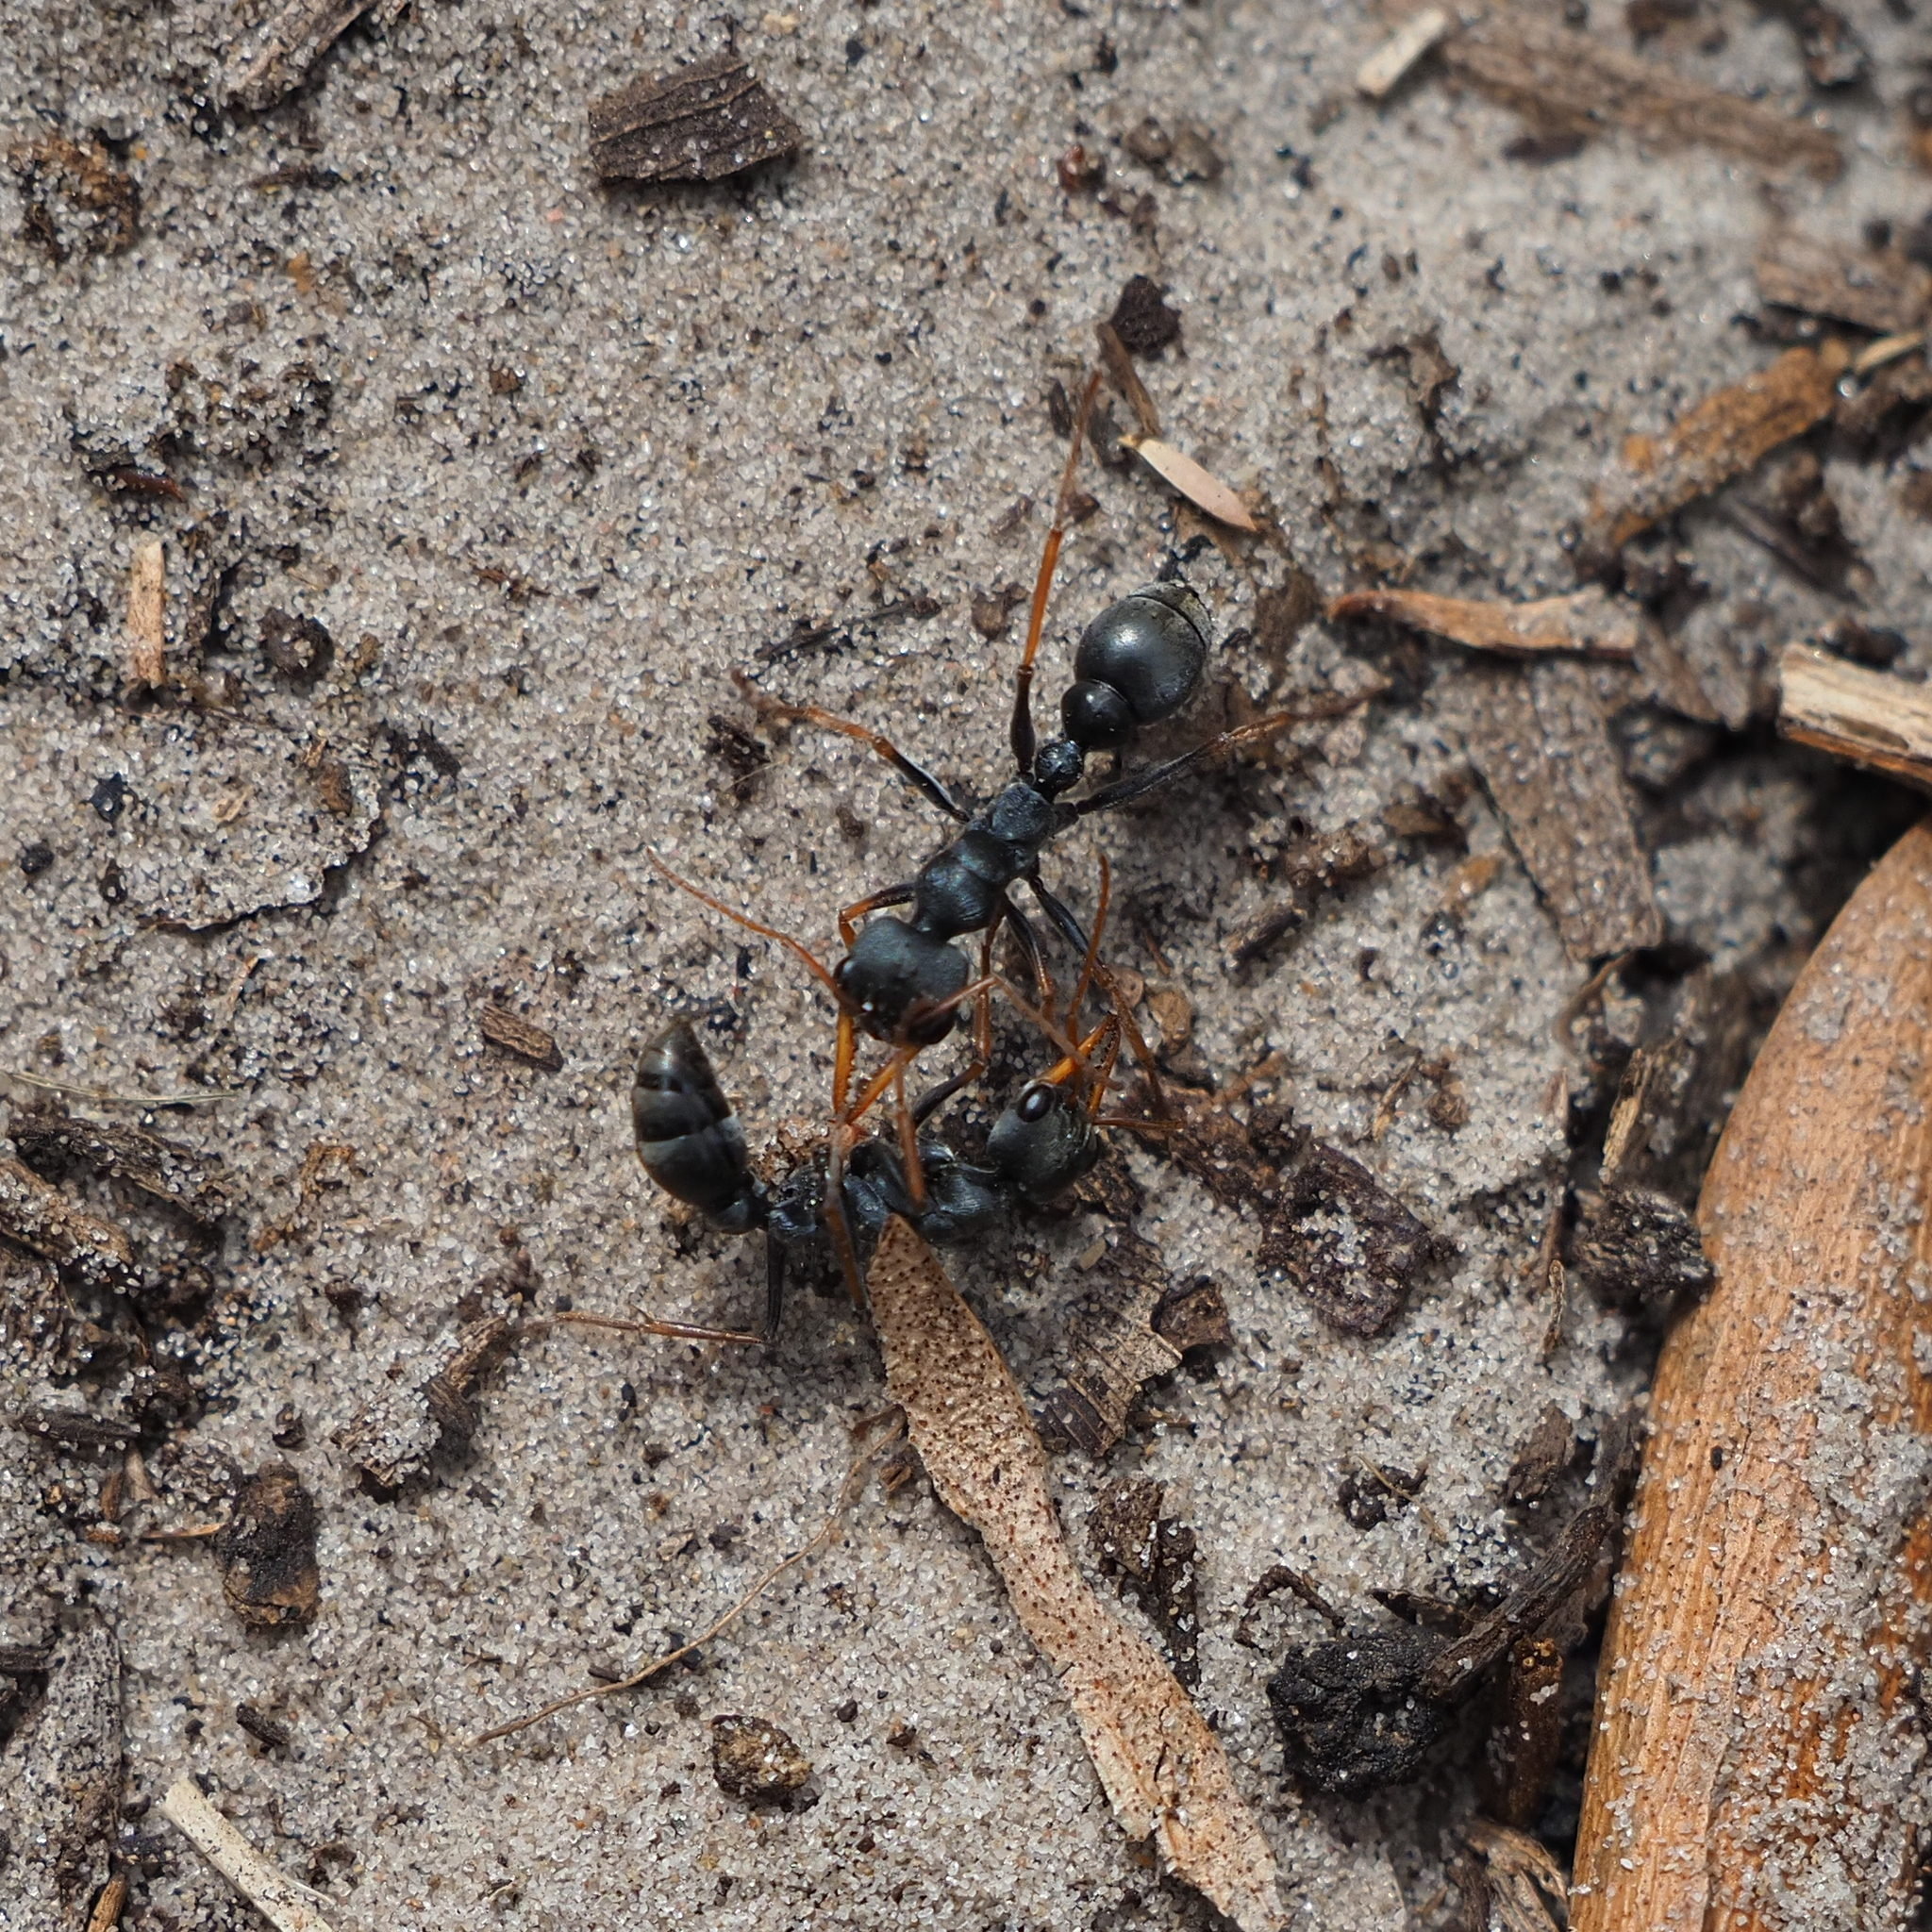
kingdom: Animalia
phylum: Arthropoda
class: Insecta
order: Hymenoptera
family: Formicidae
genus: Myrmecia
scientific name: Myrmecia pilosula
